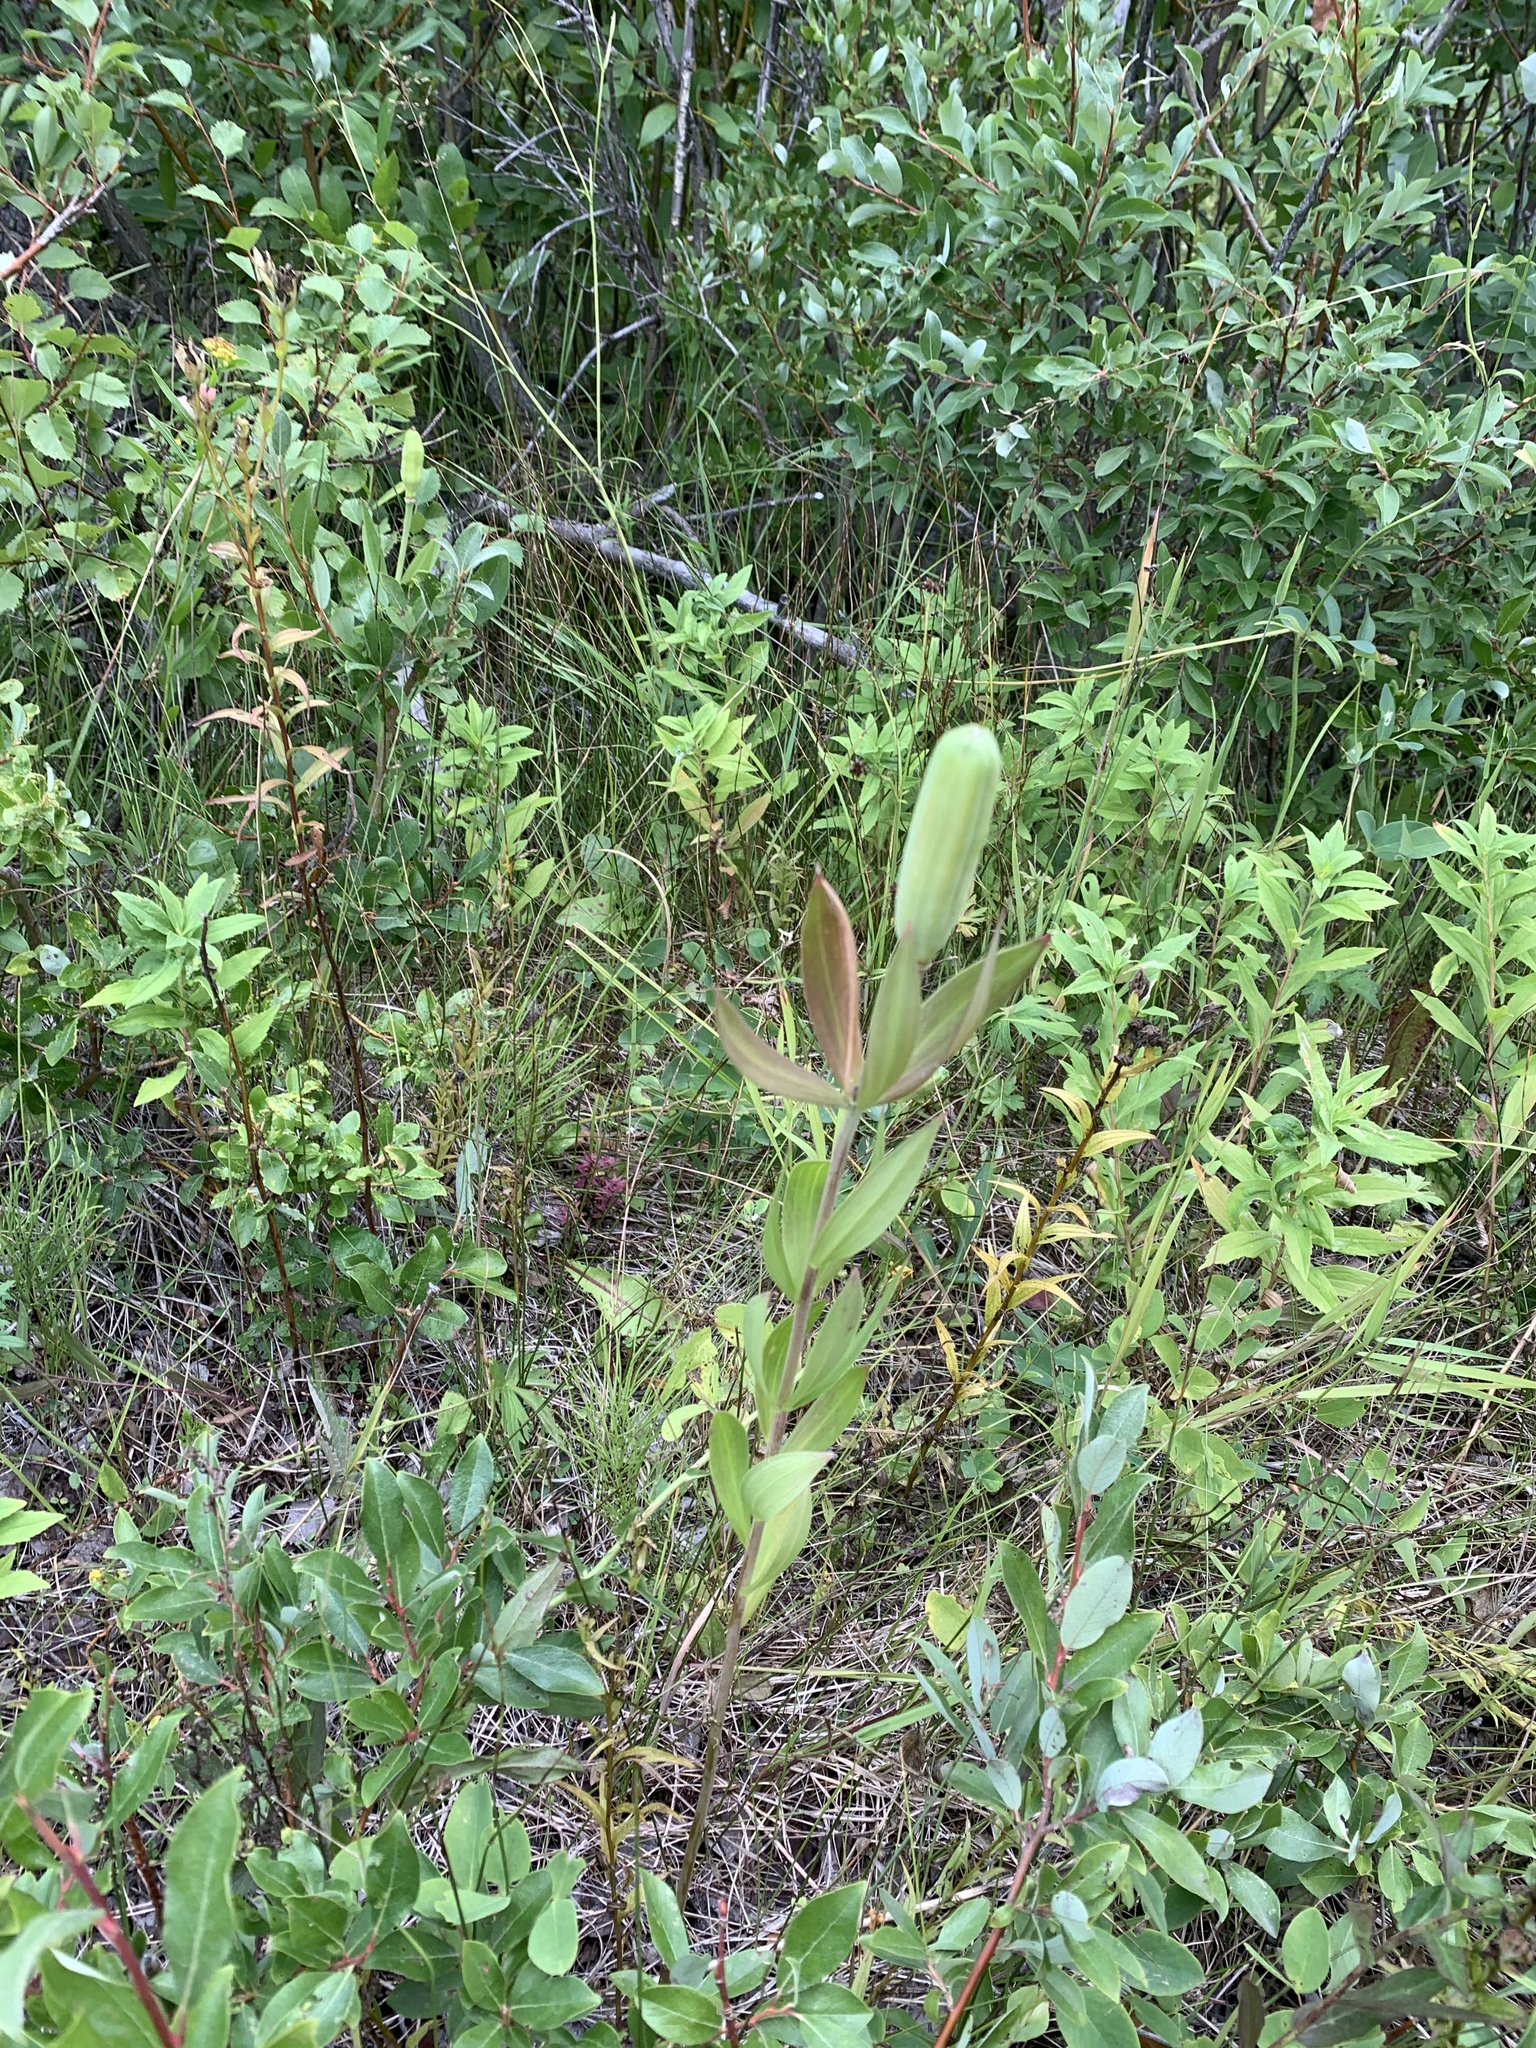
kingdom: Plantae
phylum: Tracheophyta
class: Liliopsida
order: Liliales
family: Liliaceae
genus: Lilium
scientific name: Lilium philadelphicum
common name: Red lily
